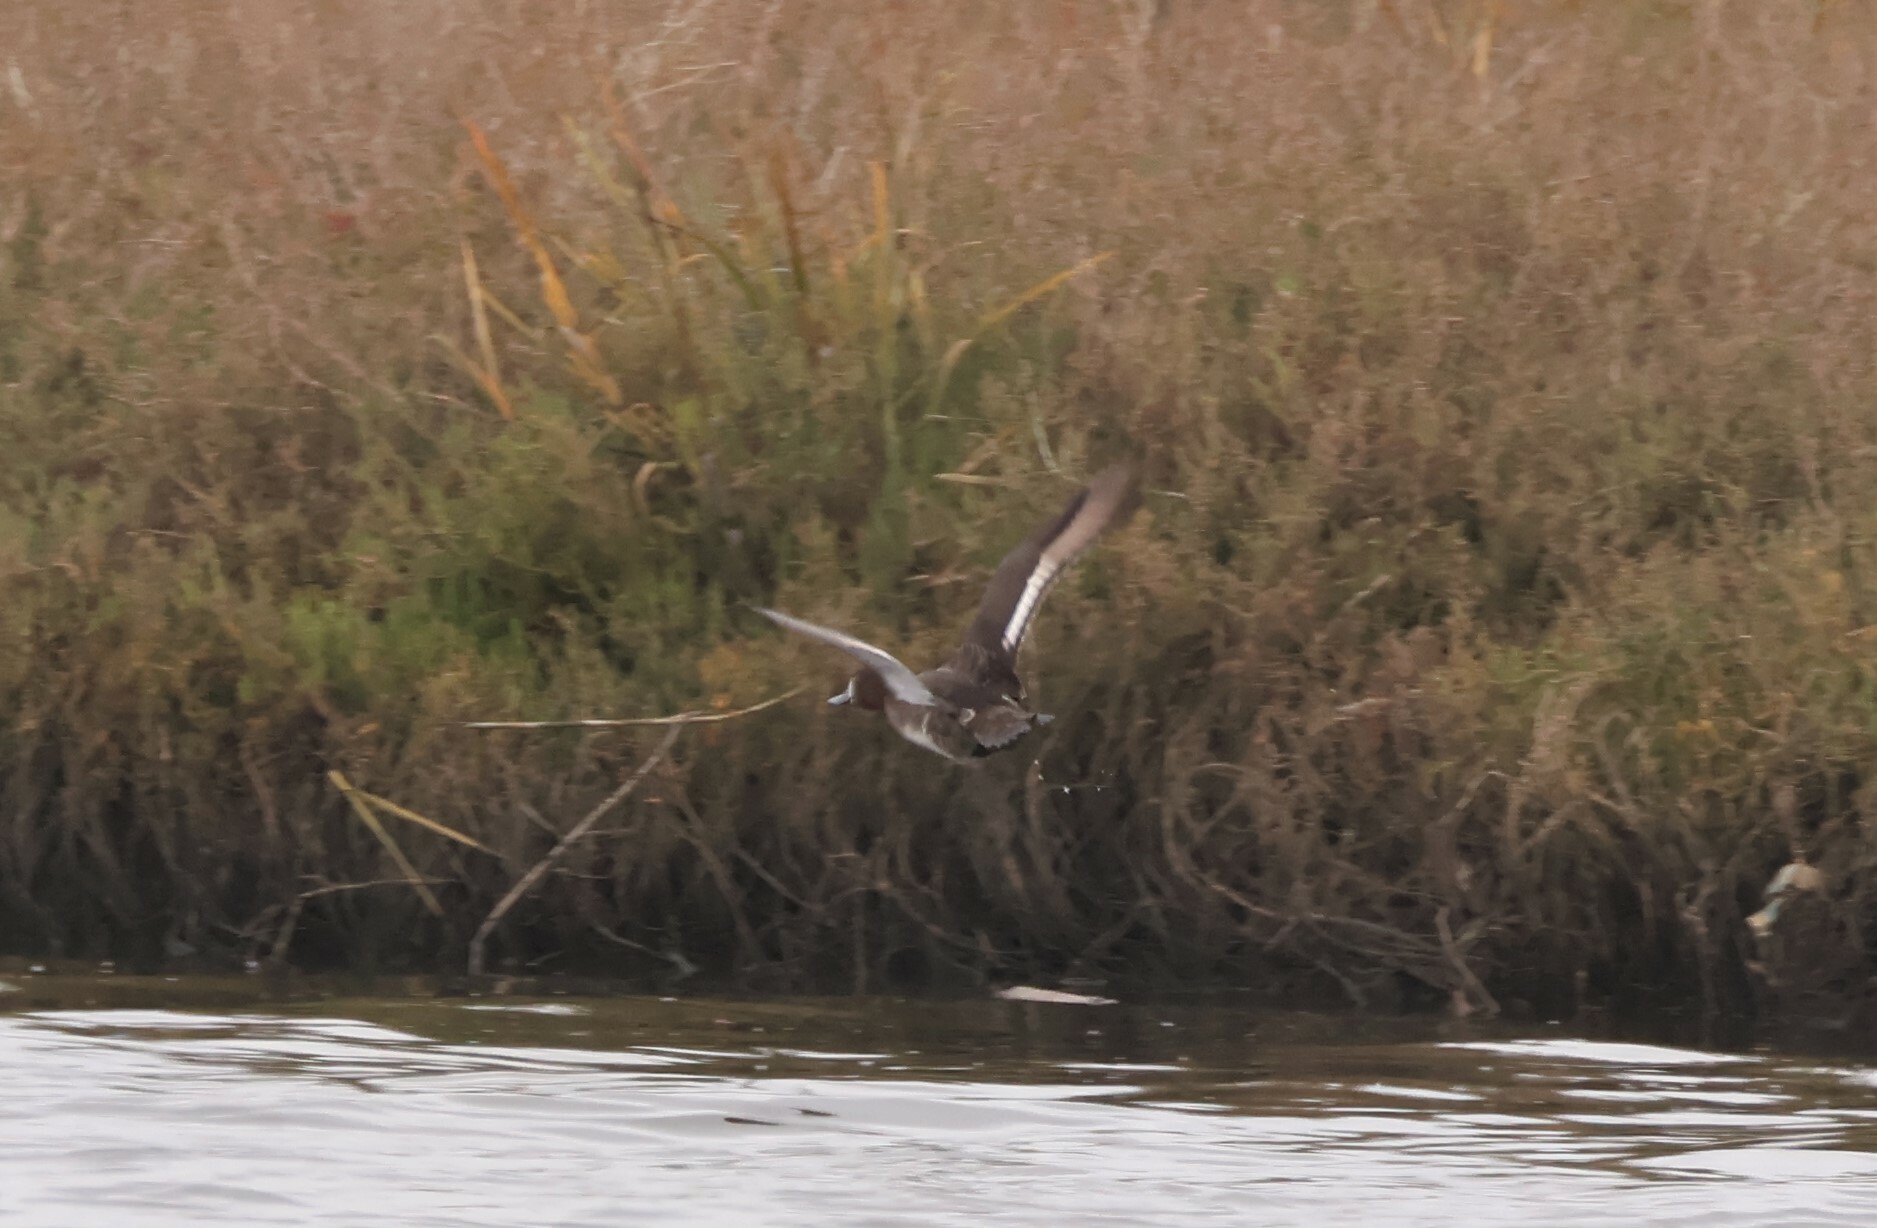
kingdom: Animalia
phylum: Chordata
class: Aves
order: Anseriformes
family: Anatidae
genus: Aythya
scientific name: Aythya affinis
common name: Lesser scaup
